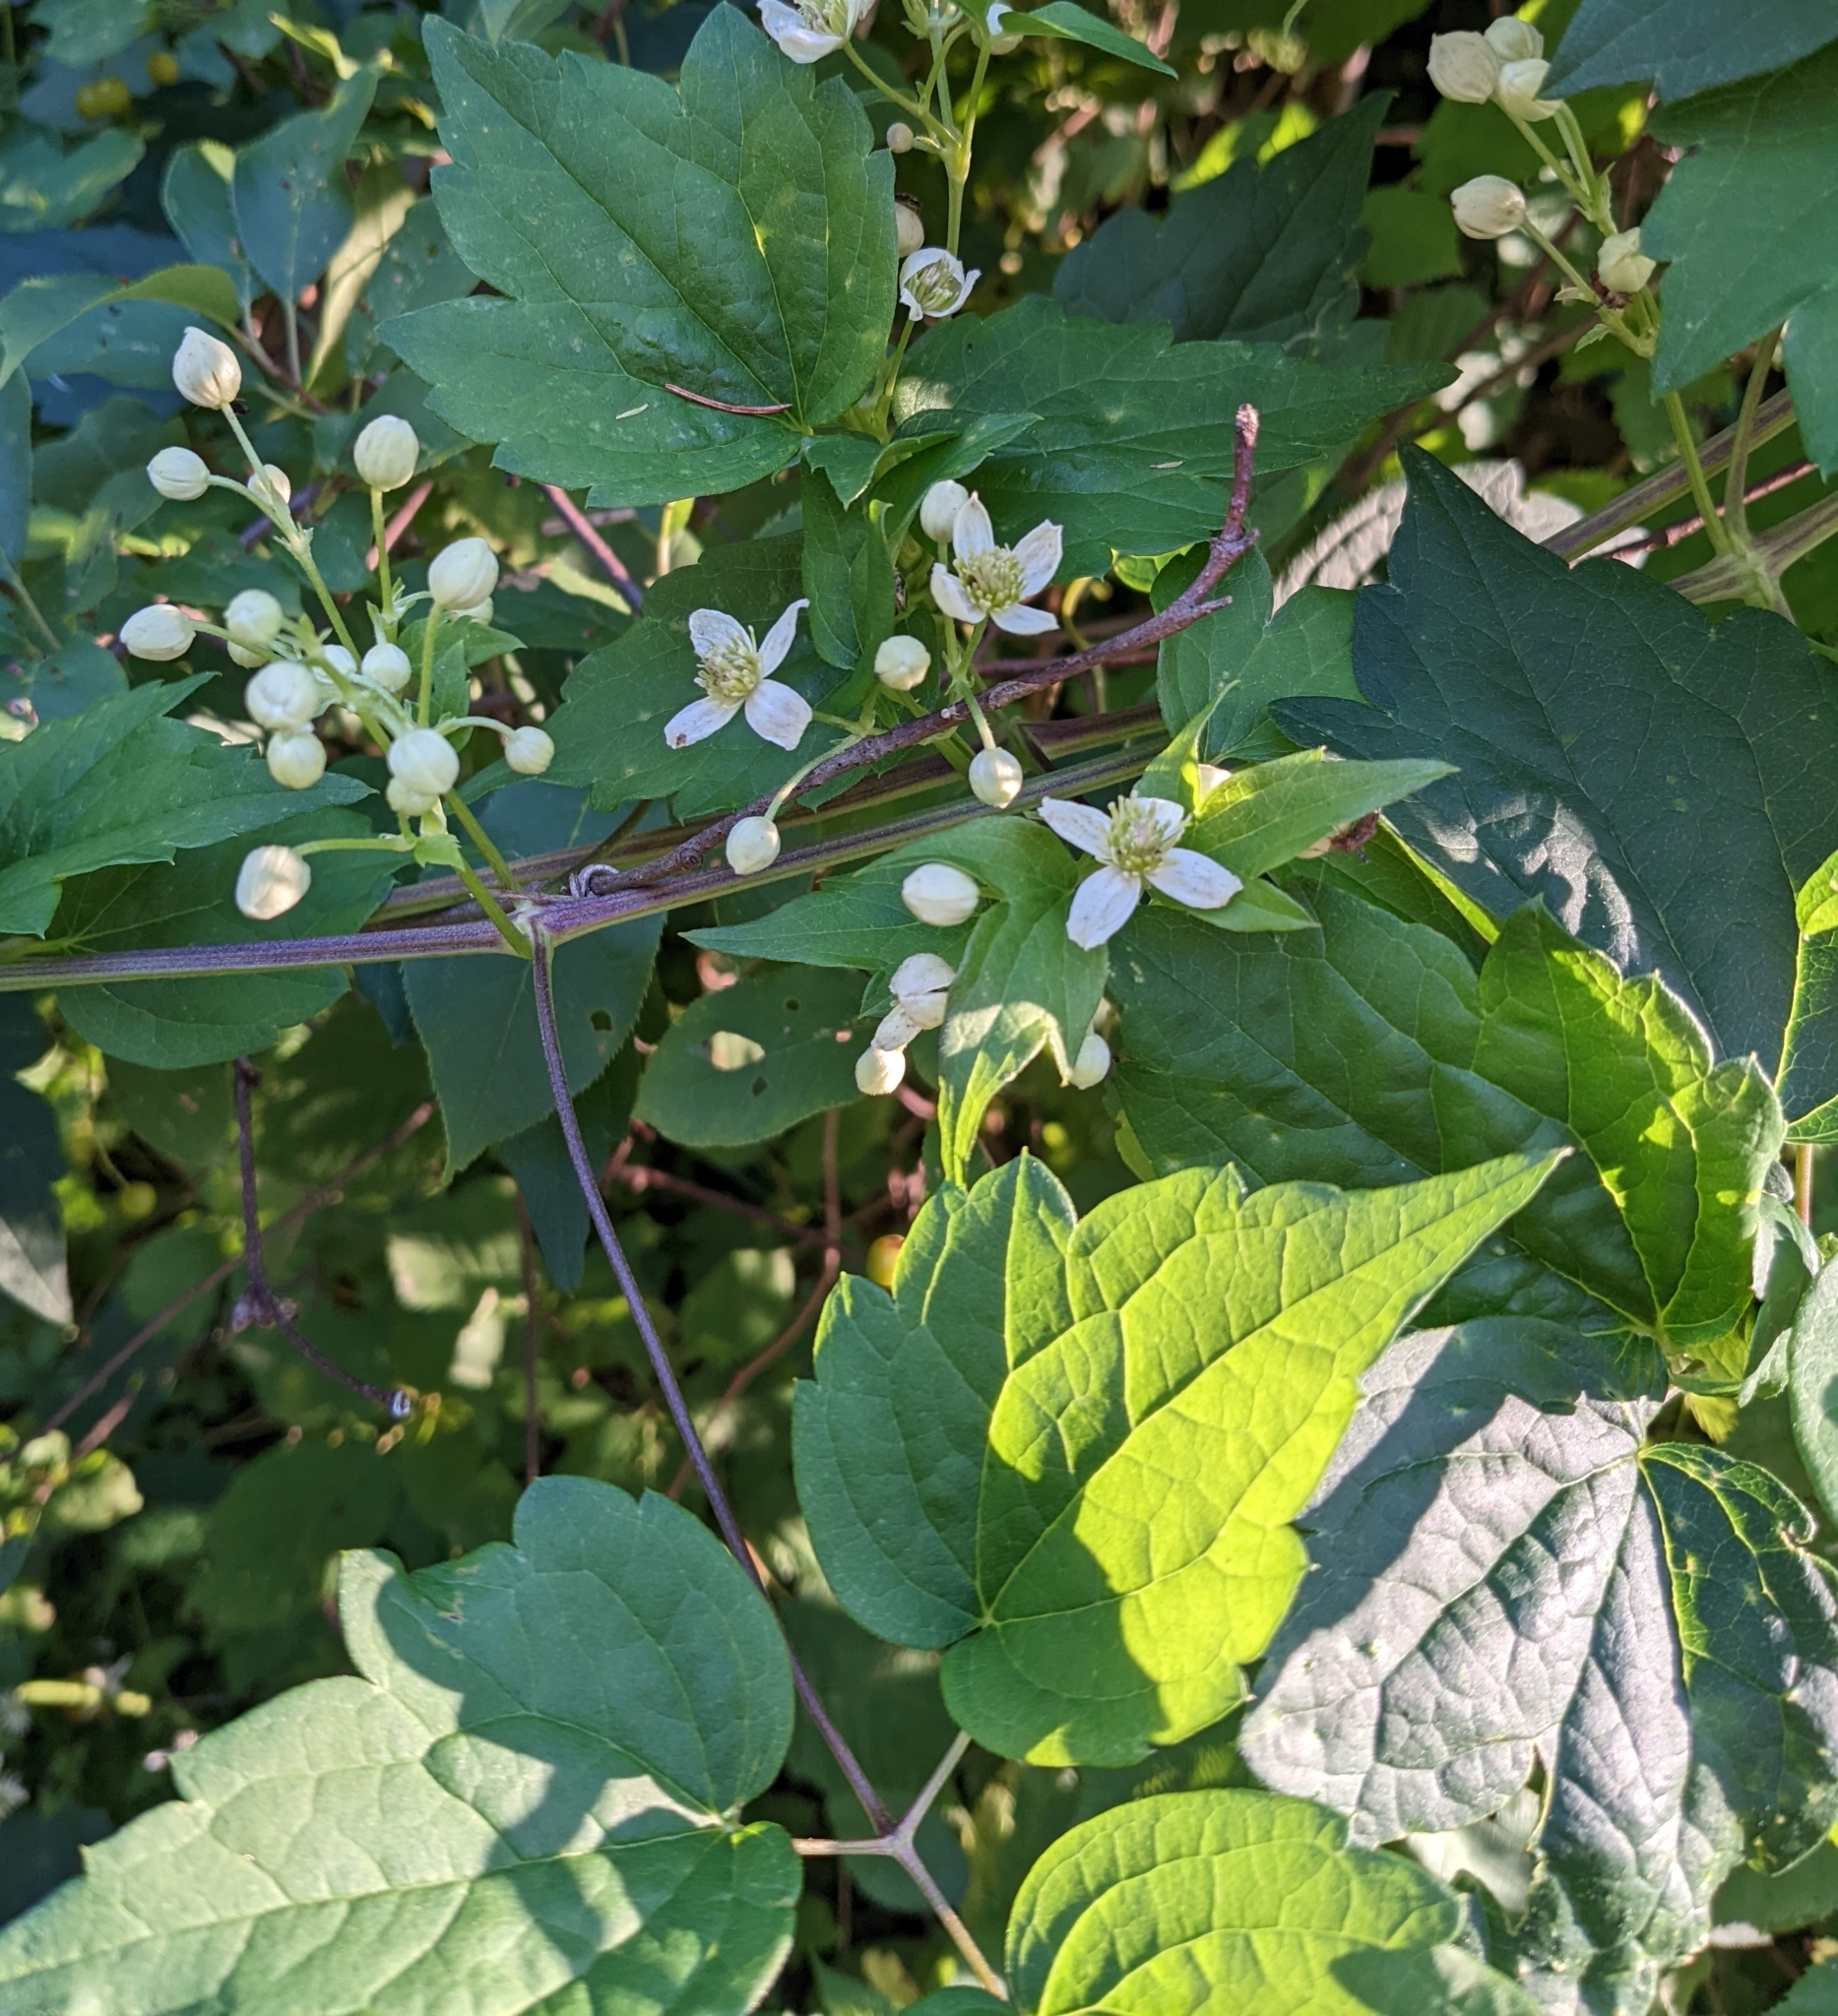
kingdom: Plantae
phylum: Tracheophyta
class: Magnoliopsida
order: Ranunculales
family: Ranunculaceae
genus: Clematis
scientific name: Clematis virginiana
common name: Virgin's-bower
